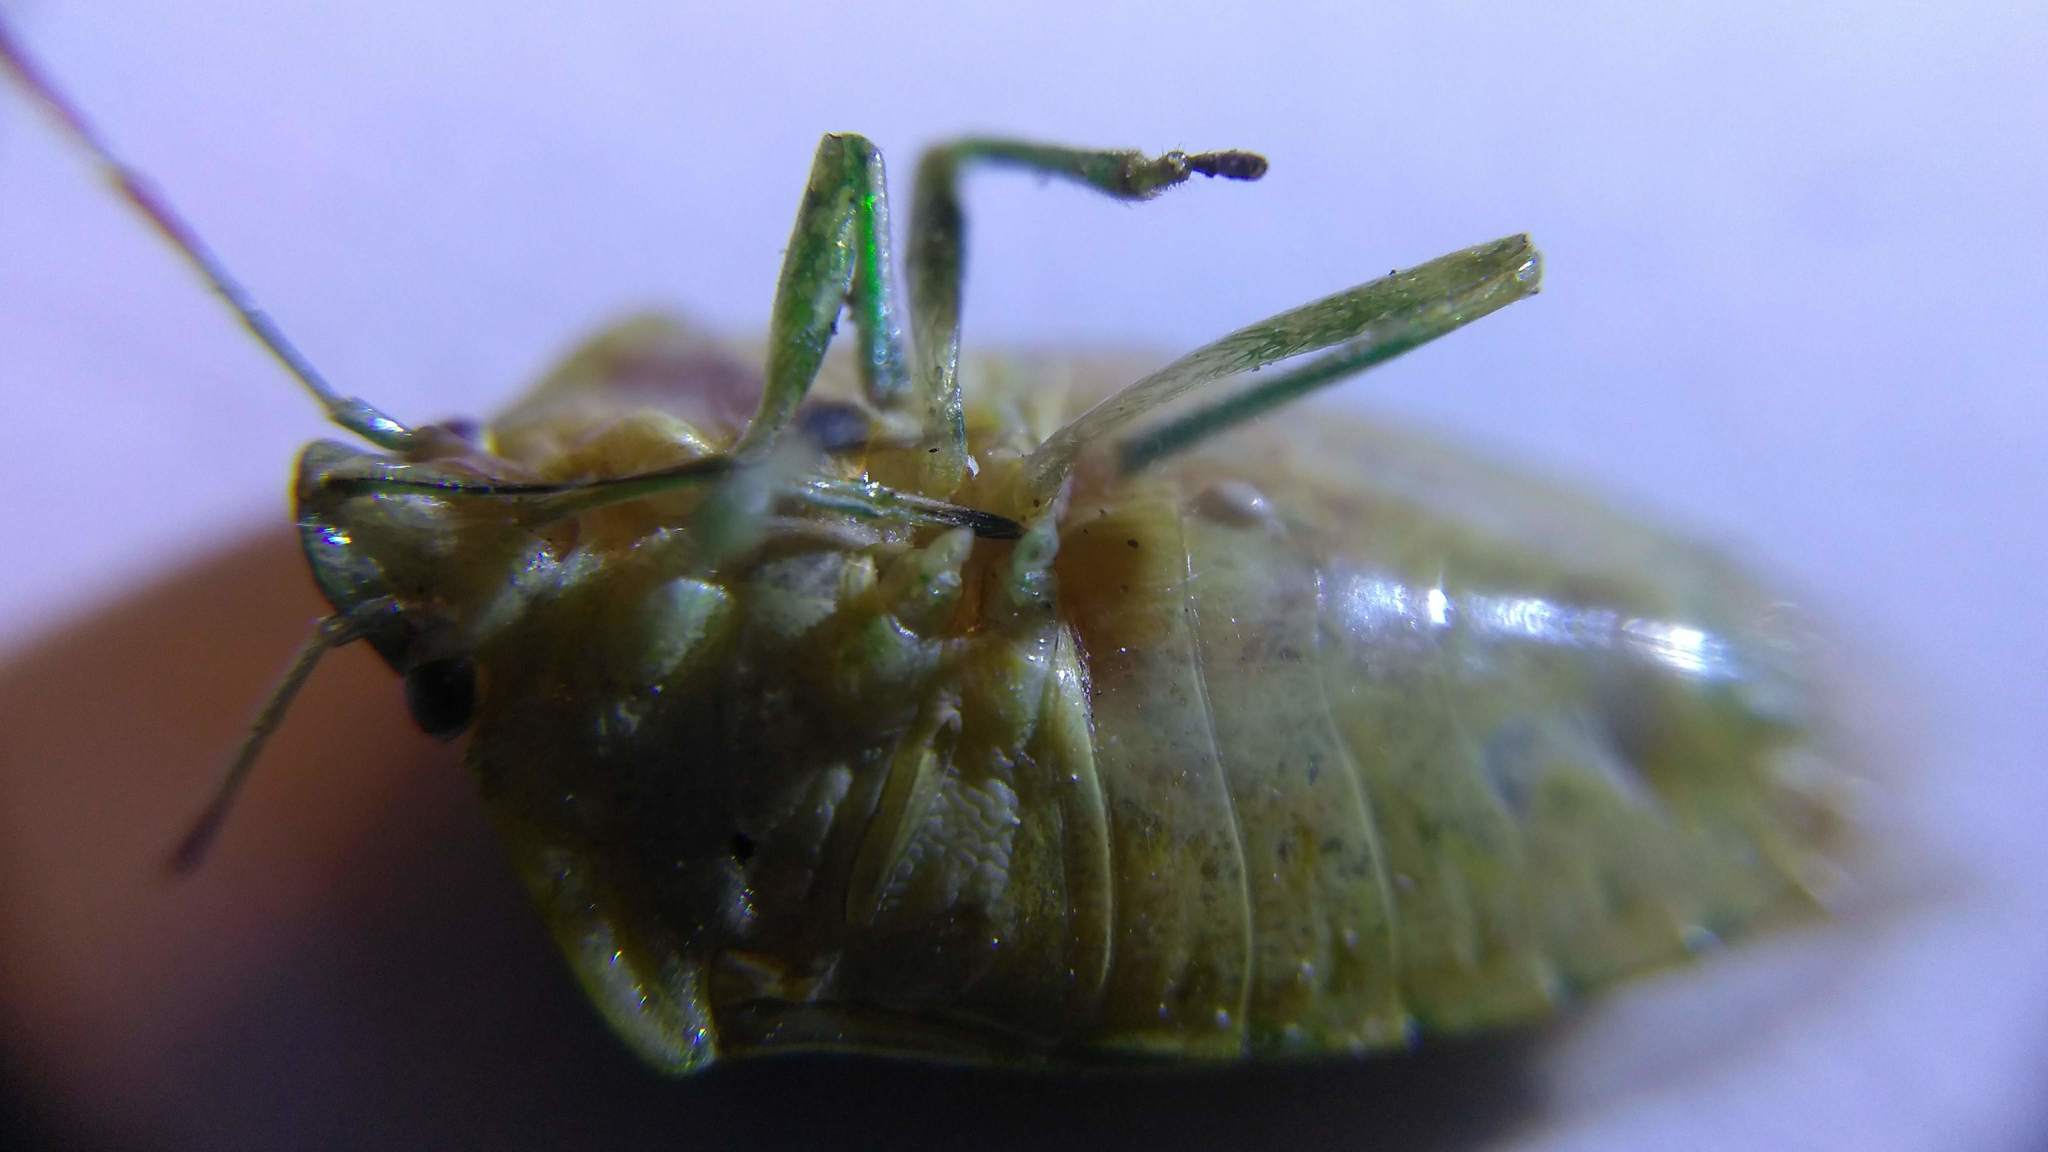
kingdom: Animalia
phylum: Arthropoda
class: Insecta
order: Hemiptera
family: Pentatomidae
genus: Banasa
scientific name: Banasa packardii
